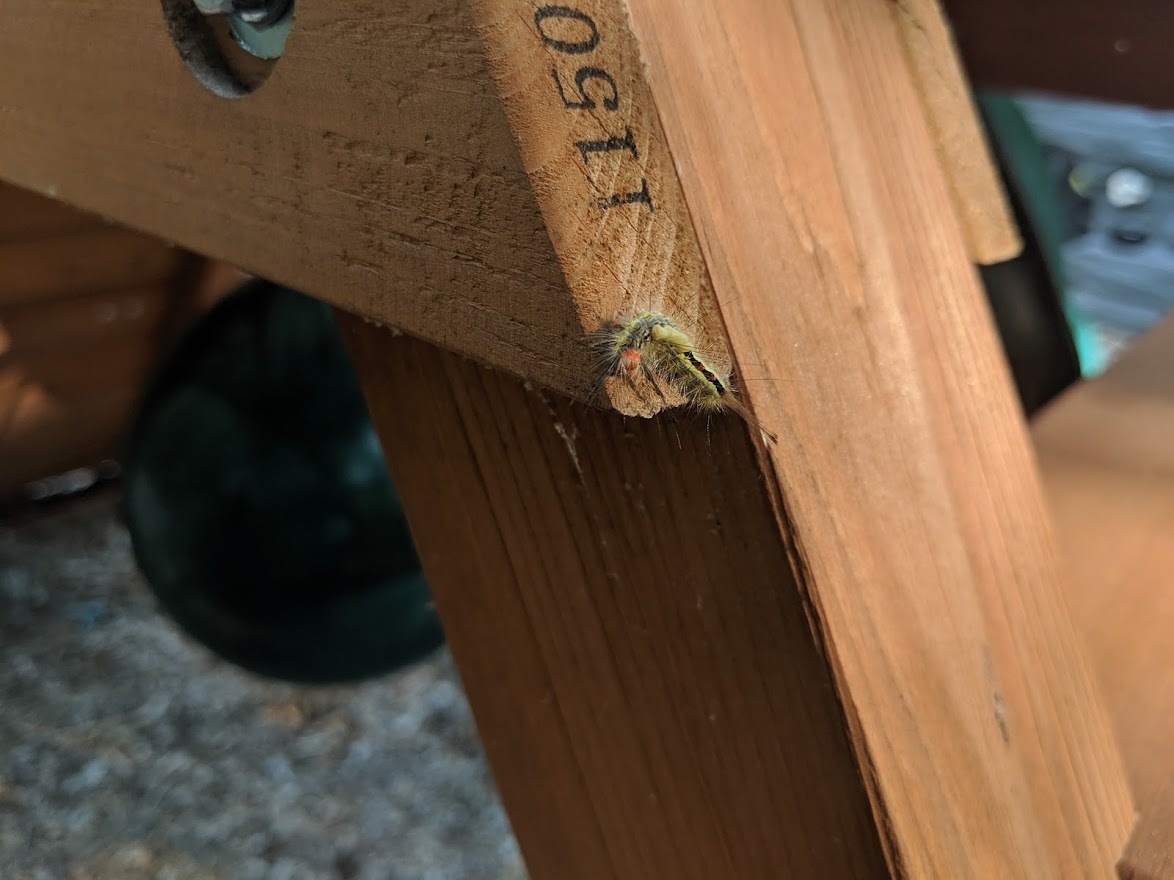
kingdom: Animalia
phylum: Arthropoda
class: Insecta
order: Lepidoptera
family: Erebidae
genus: Orgyia
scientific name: Orgyia leucostigma
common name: White-marked tussock moth
